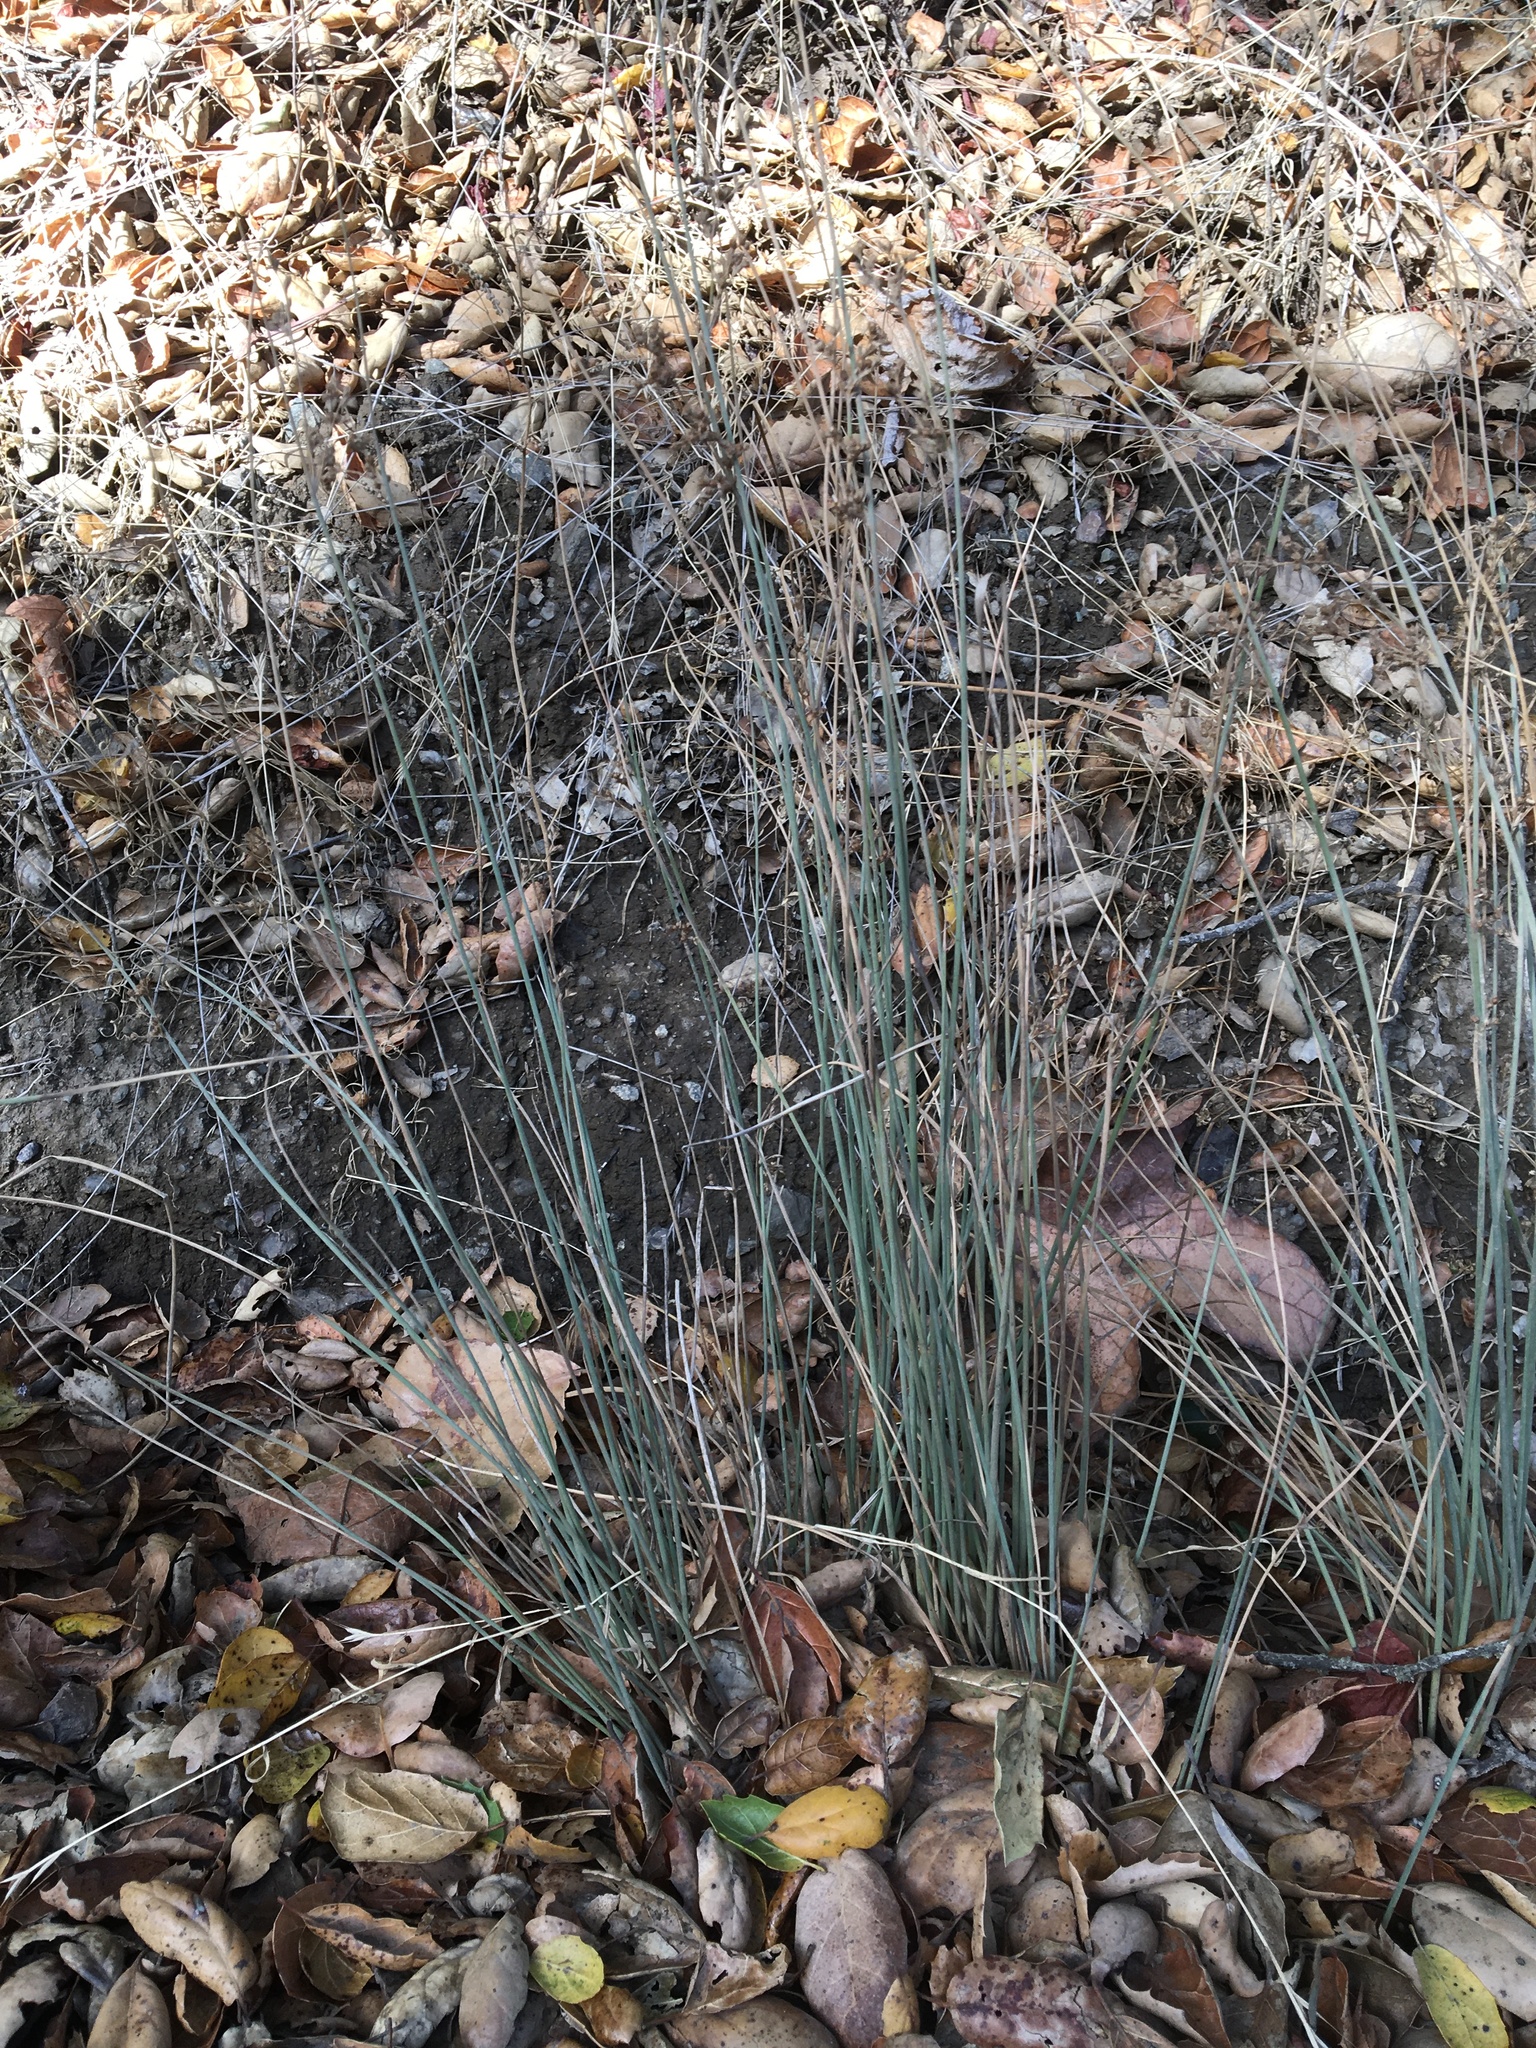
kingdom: Plantae
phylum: Tracheophyta
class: Liliopsida
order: Poales
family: Juncaceae
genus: Juncus
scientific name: Juncus patens
